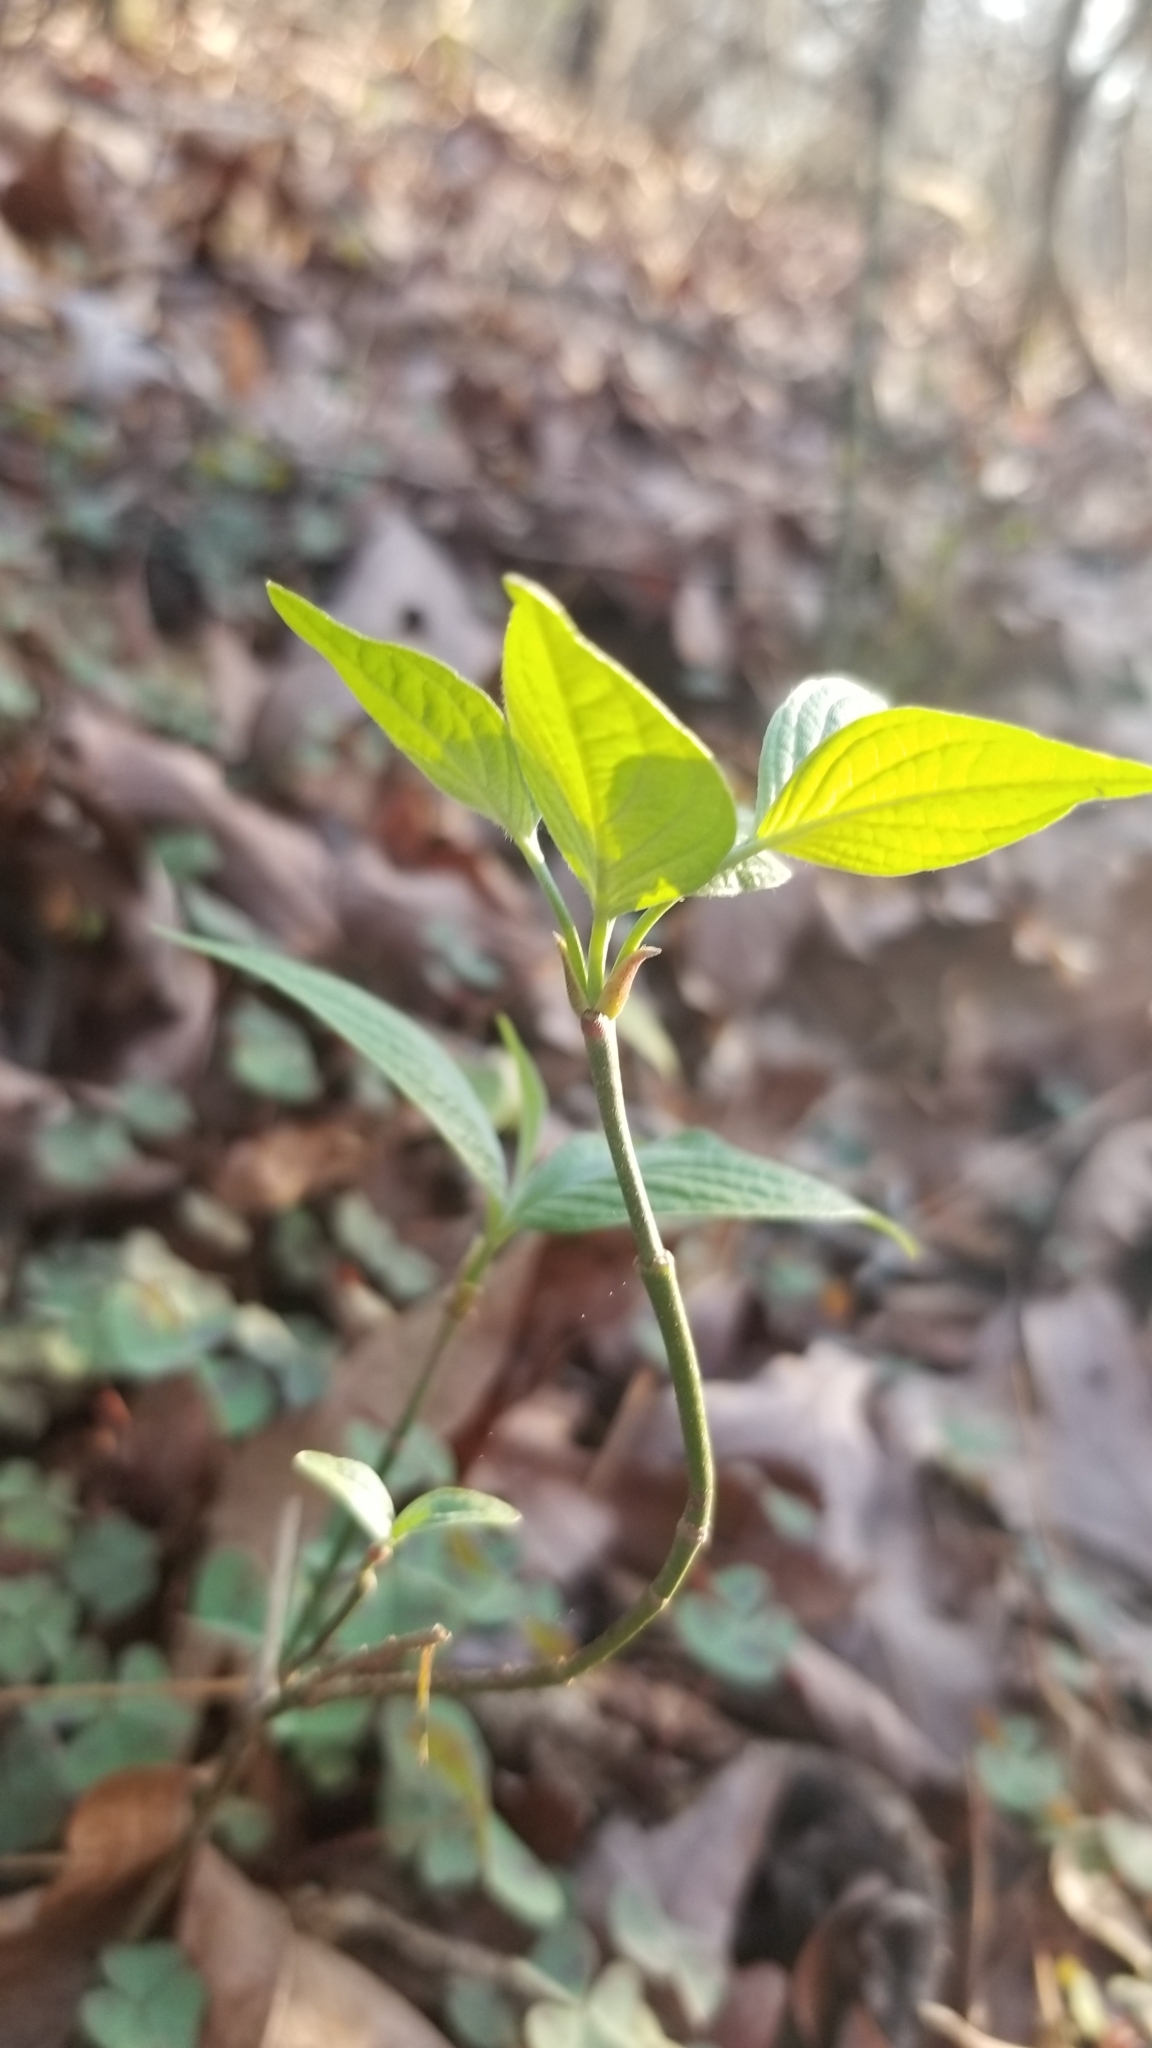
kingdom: Plantae
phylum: Tracheophyta
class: Magnoliopsida
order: Cornales
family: Cornaceae
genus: Cornus
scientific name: Cornus florida
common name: Flowering dogwood
